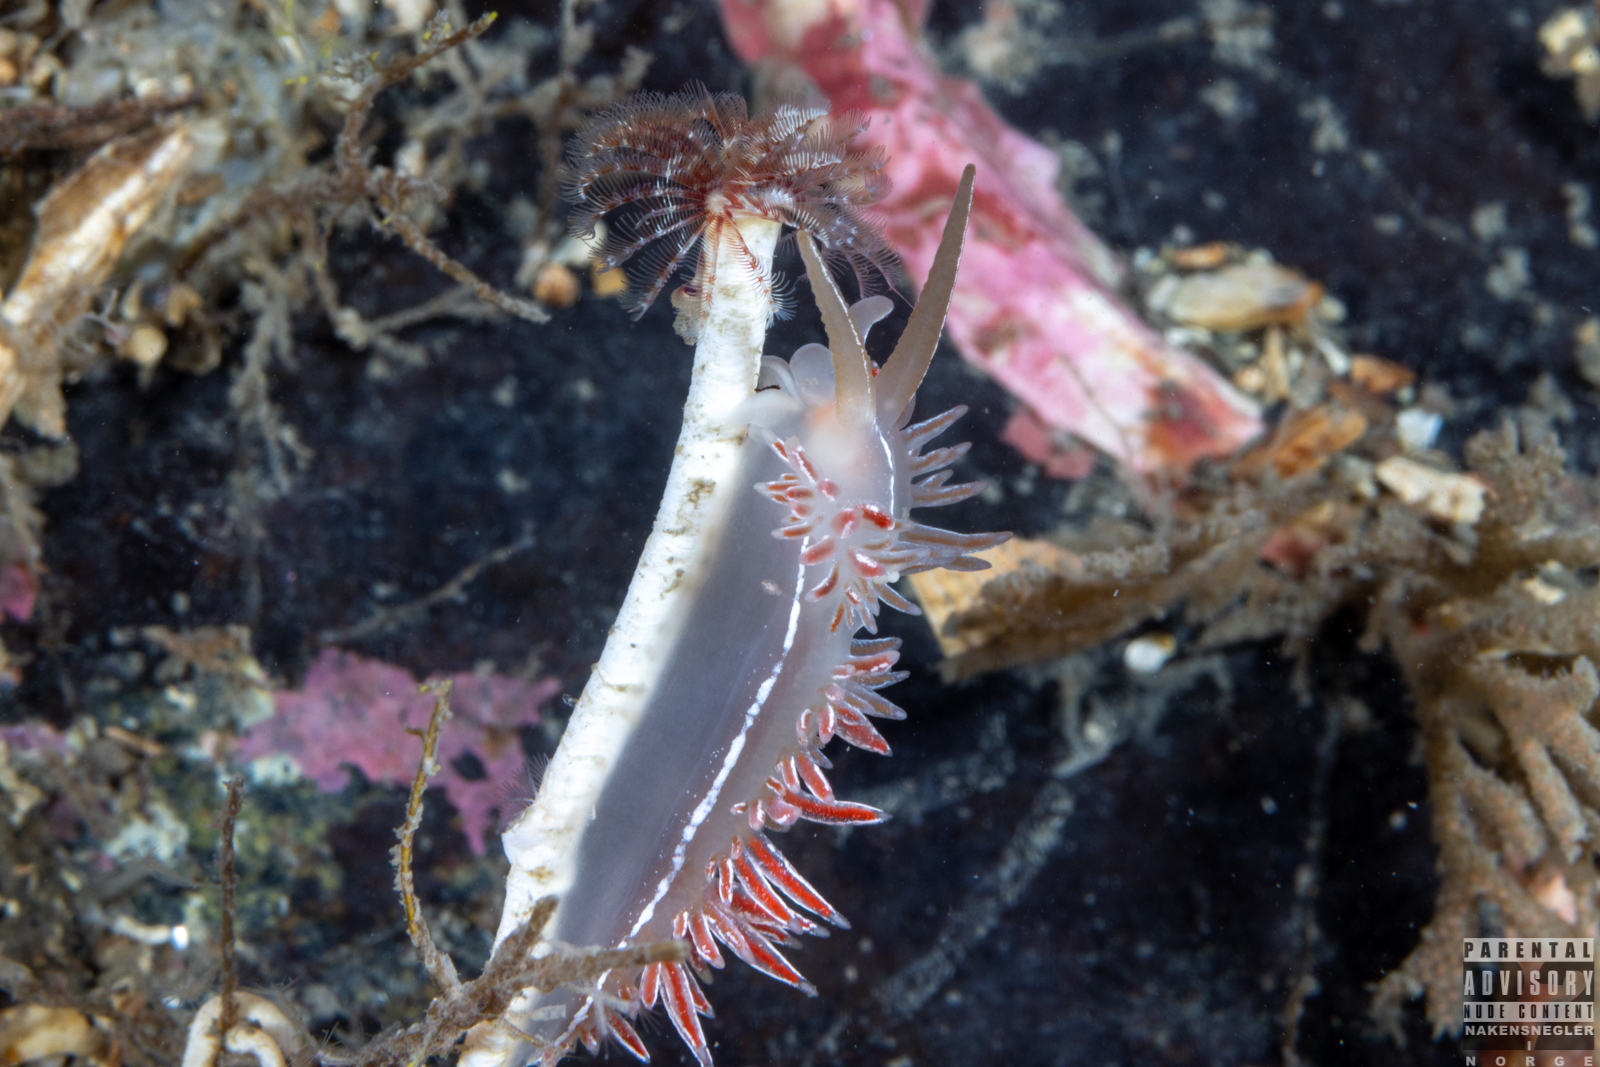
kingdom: Animalia
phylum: Mollusca
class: Gastropoda
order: Nudibranchia
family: Coryphellidae
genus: Coryphella
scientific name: Coryphella chriskaugei
